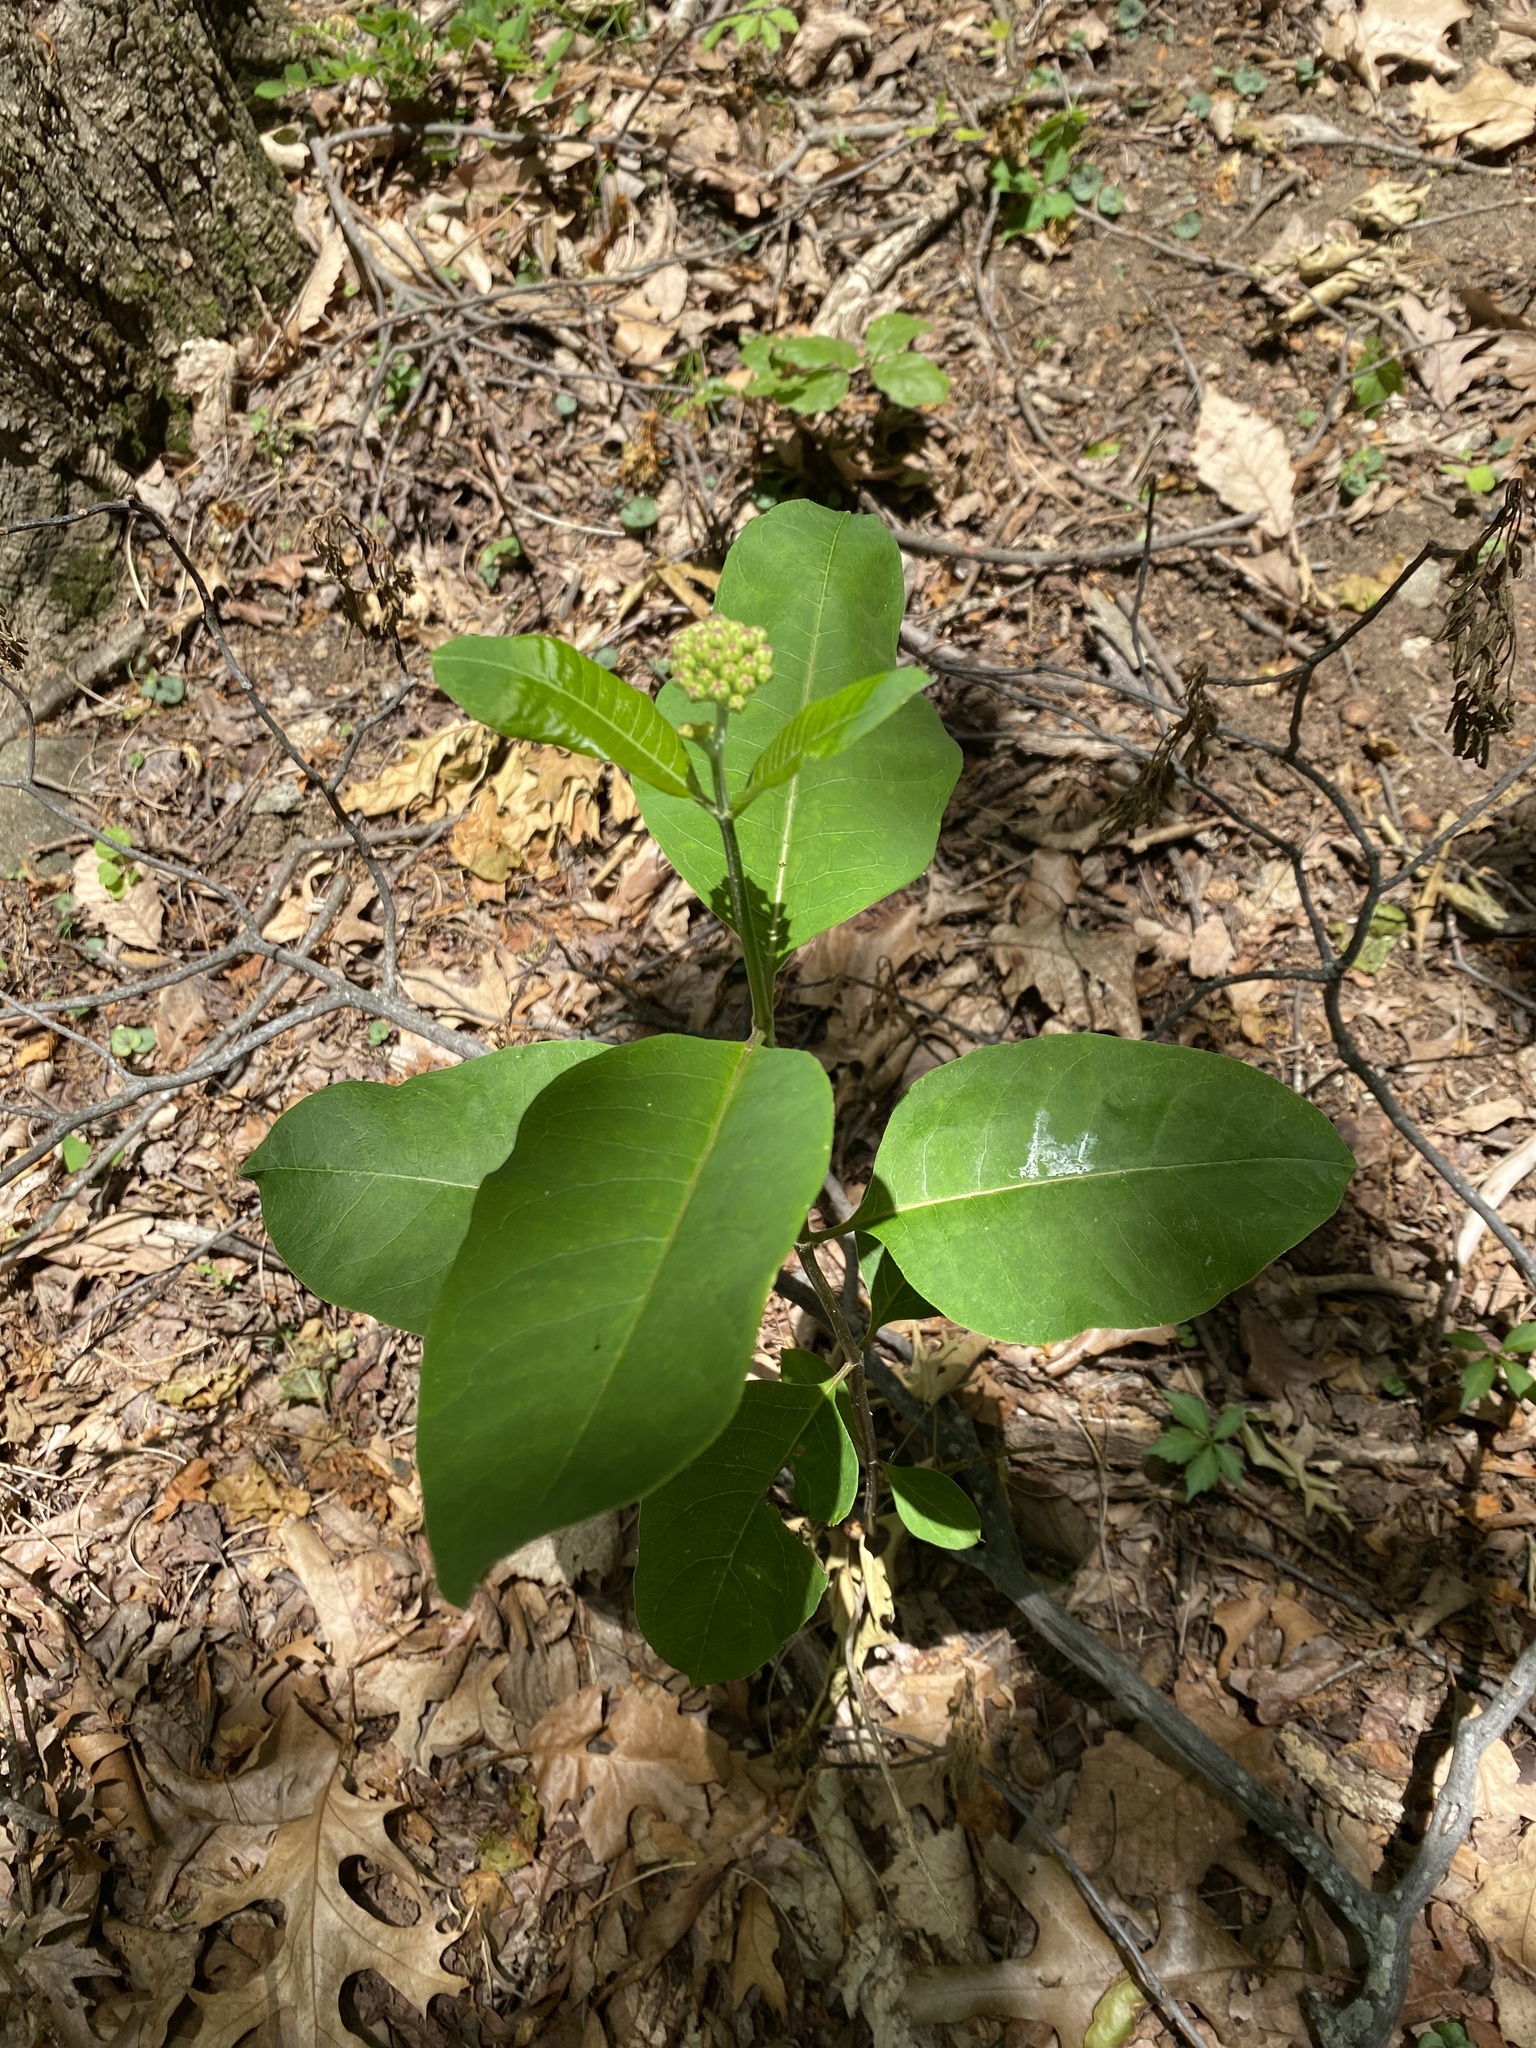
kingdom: Plantae
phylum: Tracheophyta
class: Magnoliopsida
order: Gentianales
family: Apocynaceae
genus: Asclepias
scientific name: Asclepias variegata
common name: Variegated milkweed
